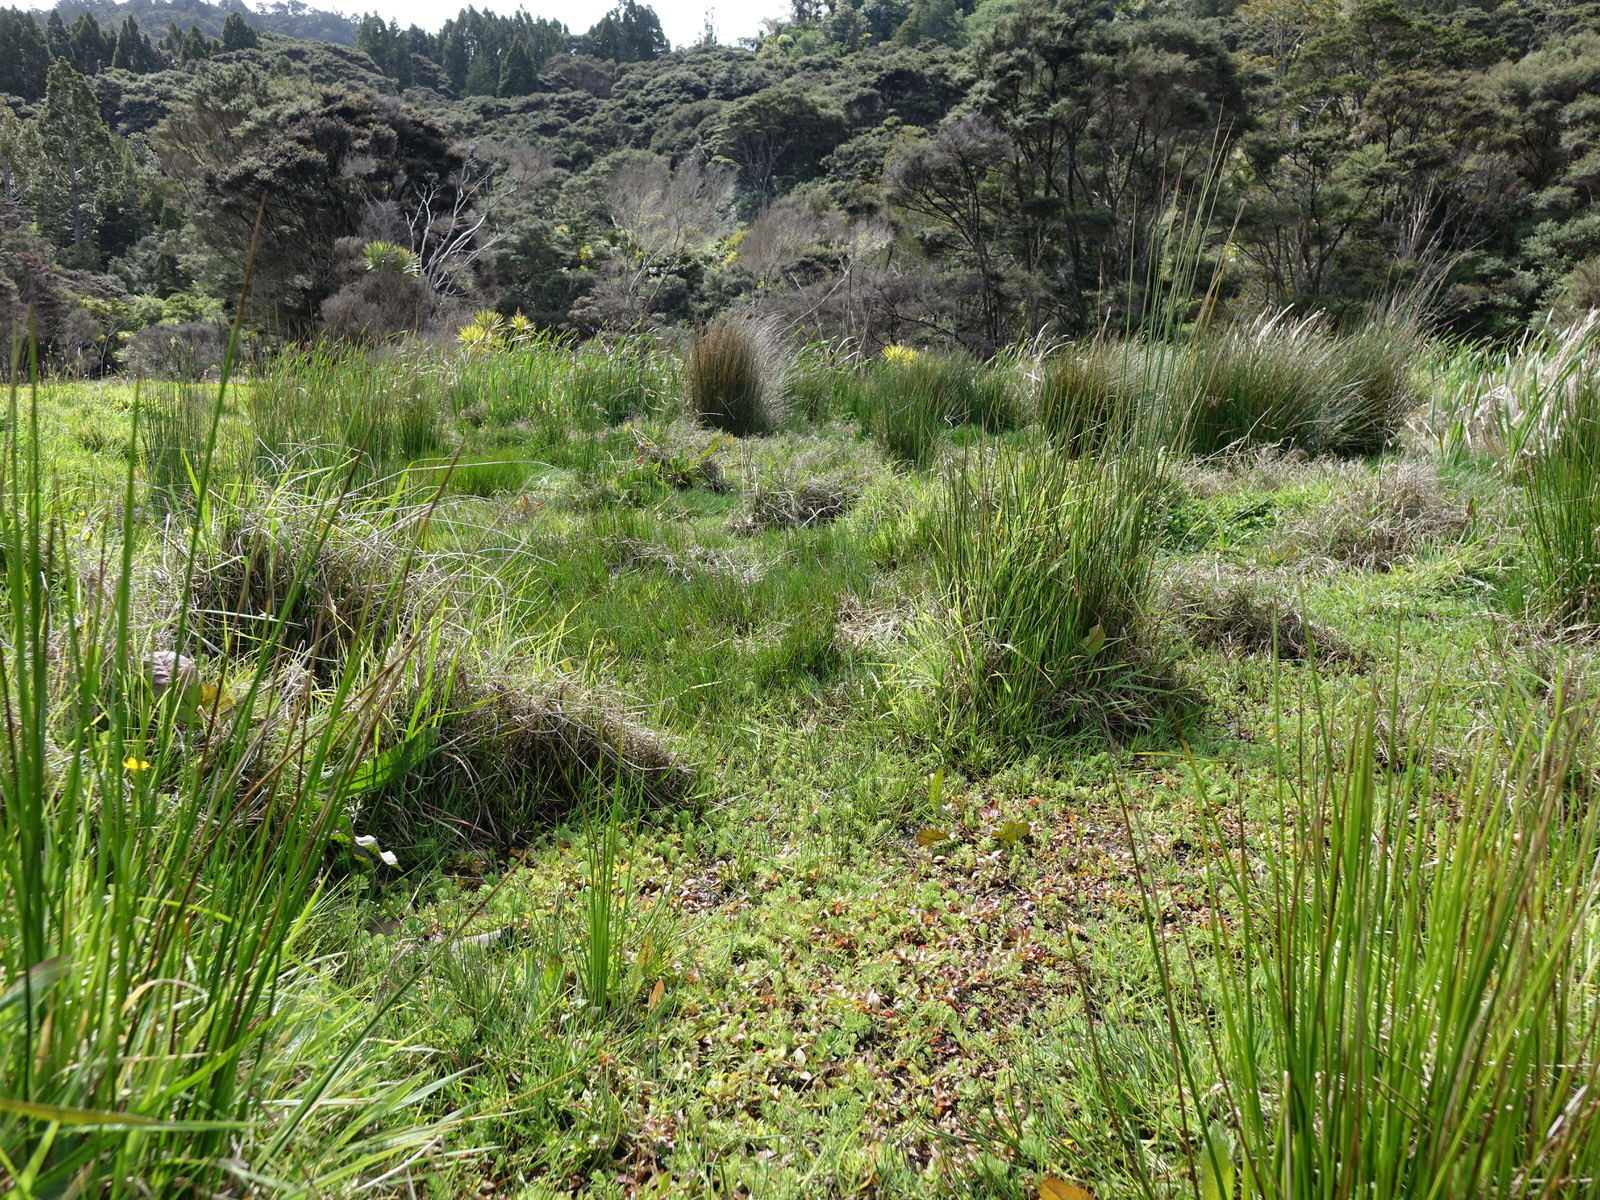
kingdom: Plantae
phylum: Tracheophyta
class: Magnoliopsida
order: Saxifragales
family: Haloragaceae
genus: Myriophyllum
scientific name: Myriophyllum aquaticum
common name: Parrot's feather
